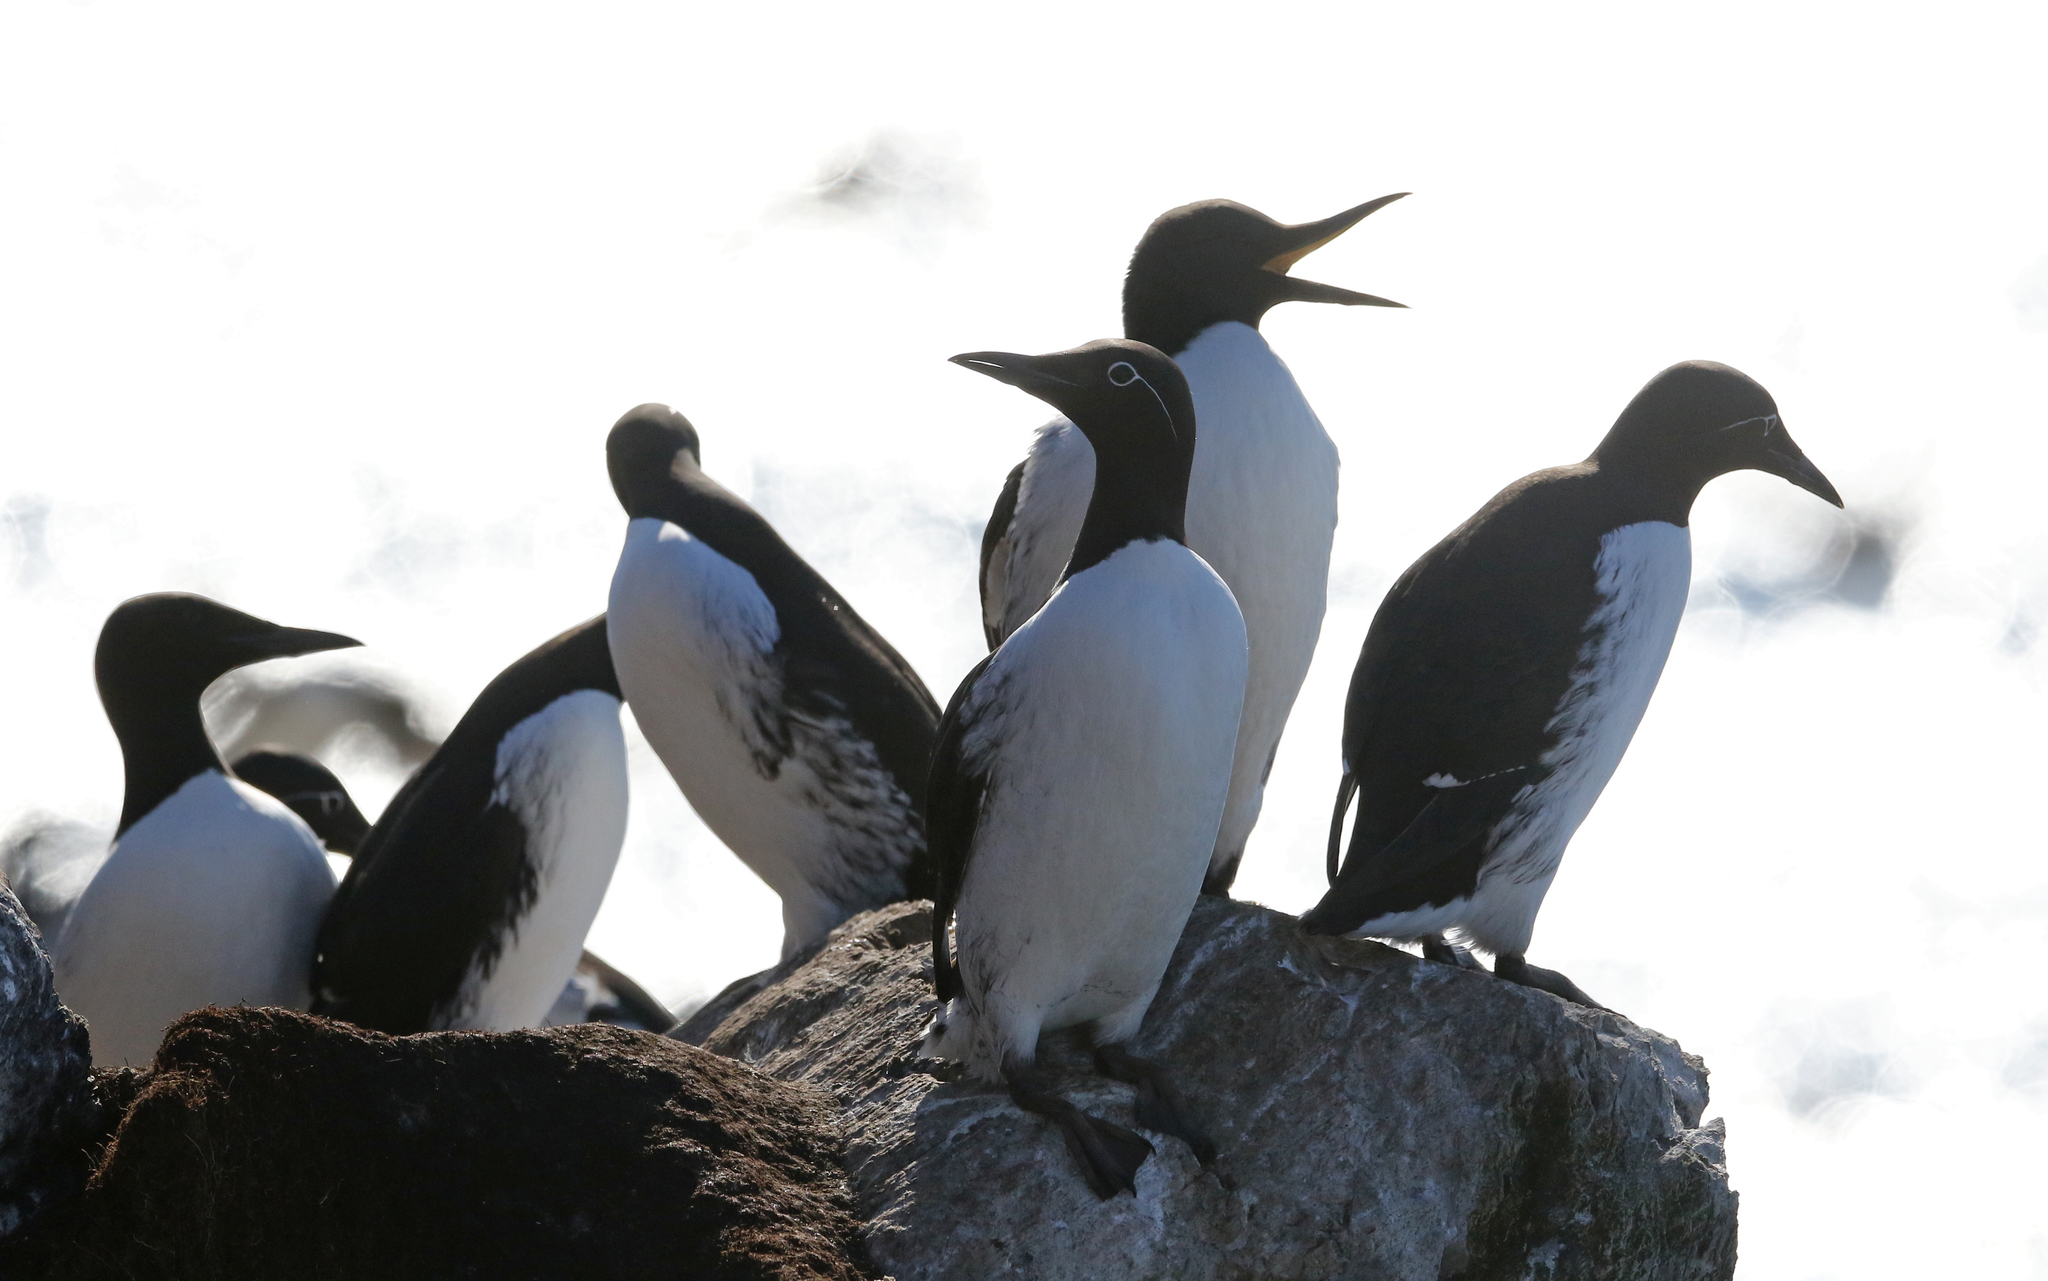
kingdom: Animalia
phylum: Chordata
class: Aves
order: Charadriiformes
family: Alcidae
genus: Uria
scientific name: Uria aalge
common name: Common murre
